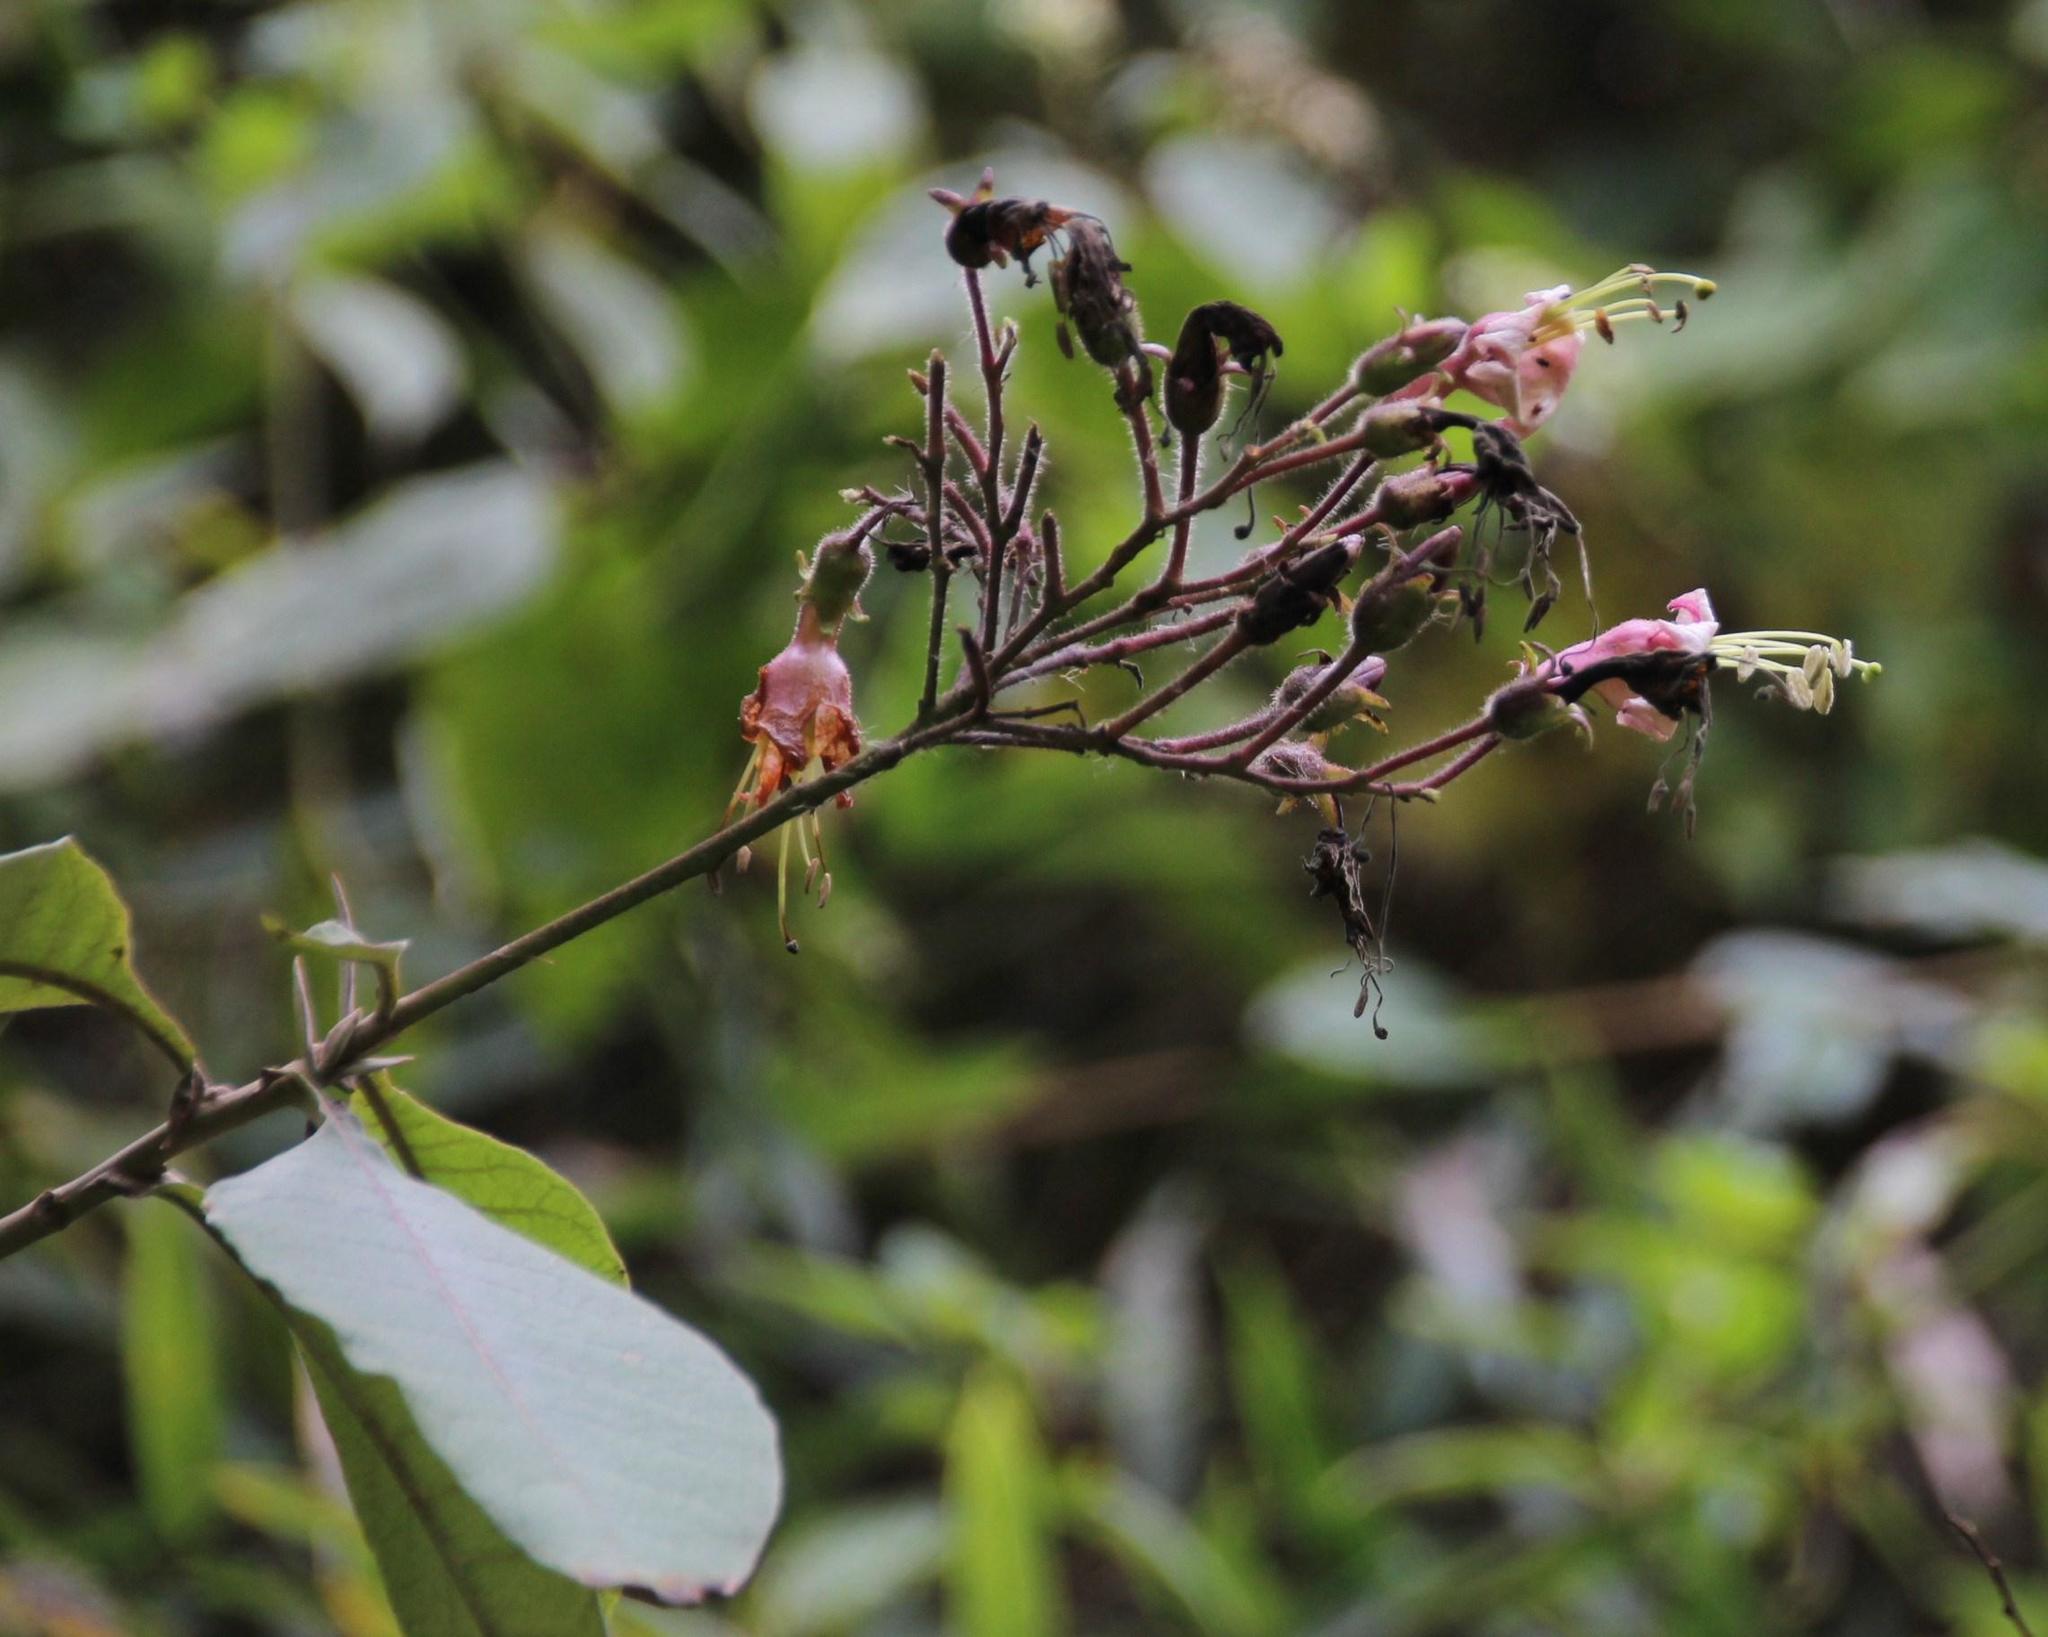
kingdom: Plantae
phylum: Tracheophyta
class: Magnoliopsida
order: Solanales
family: Solanaceae
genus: Nicotiana
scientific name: Nicotiana tomentosa
